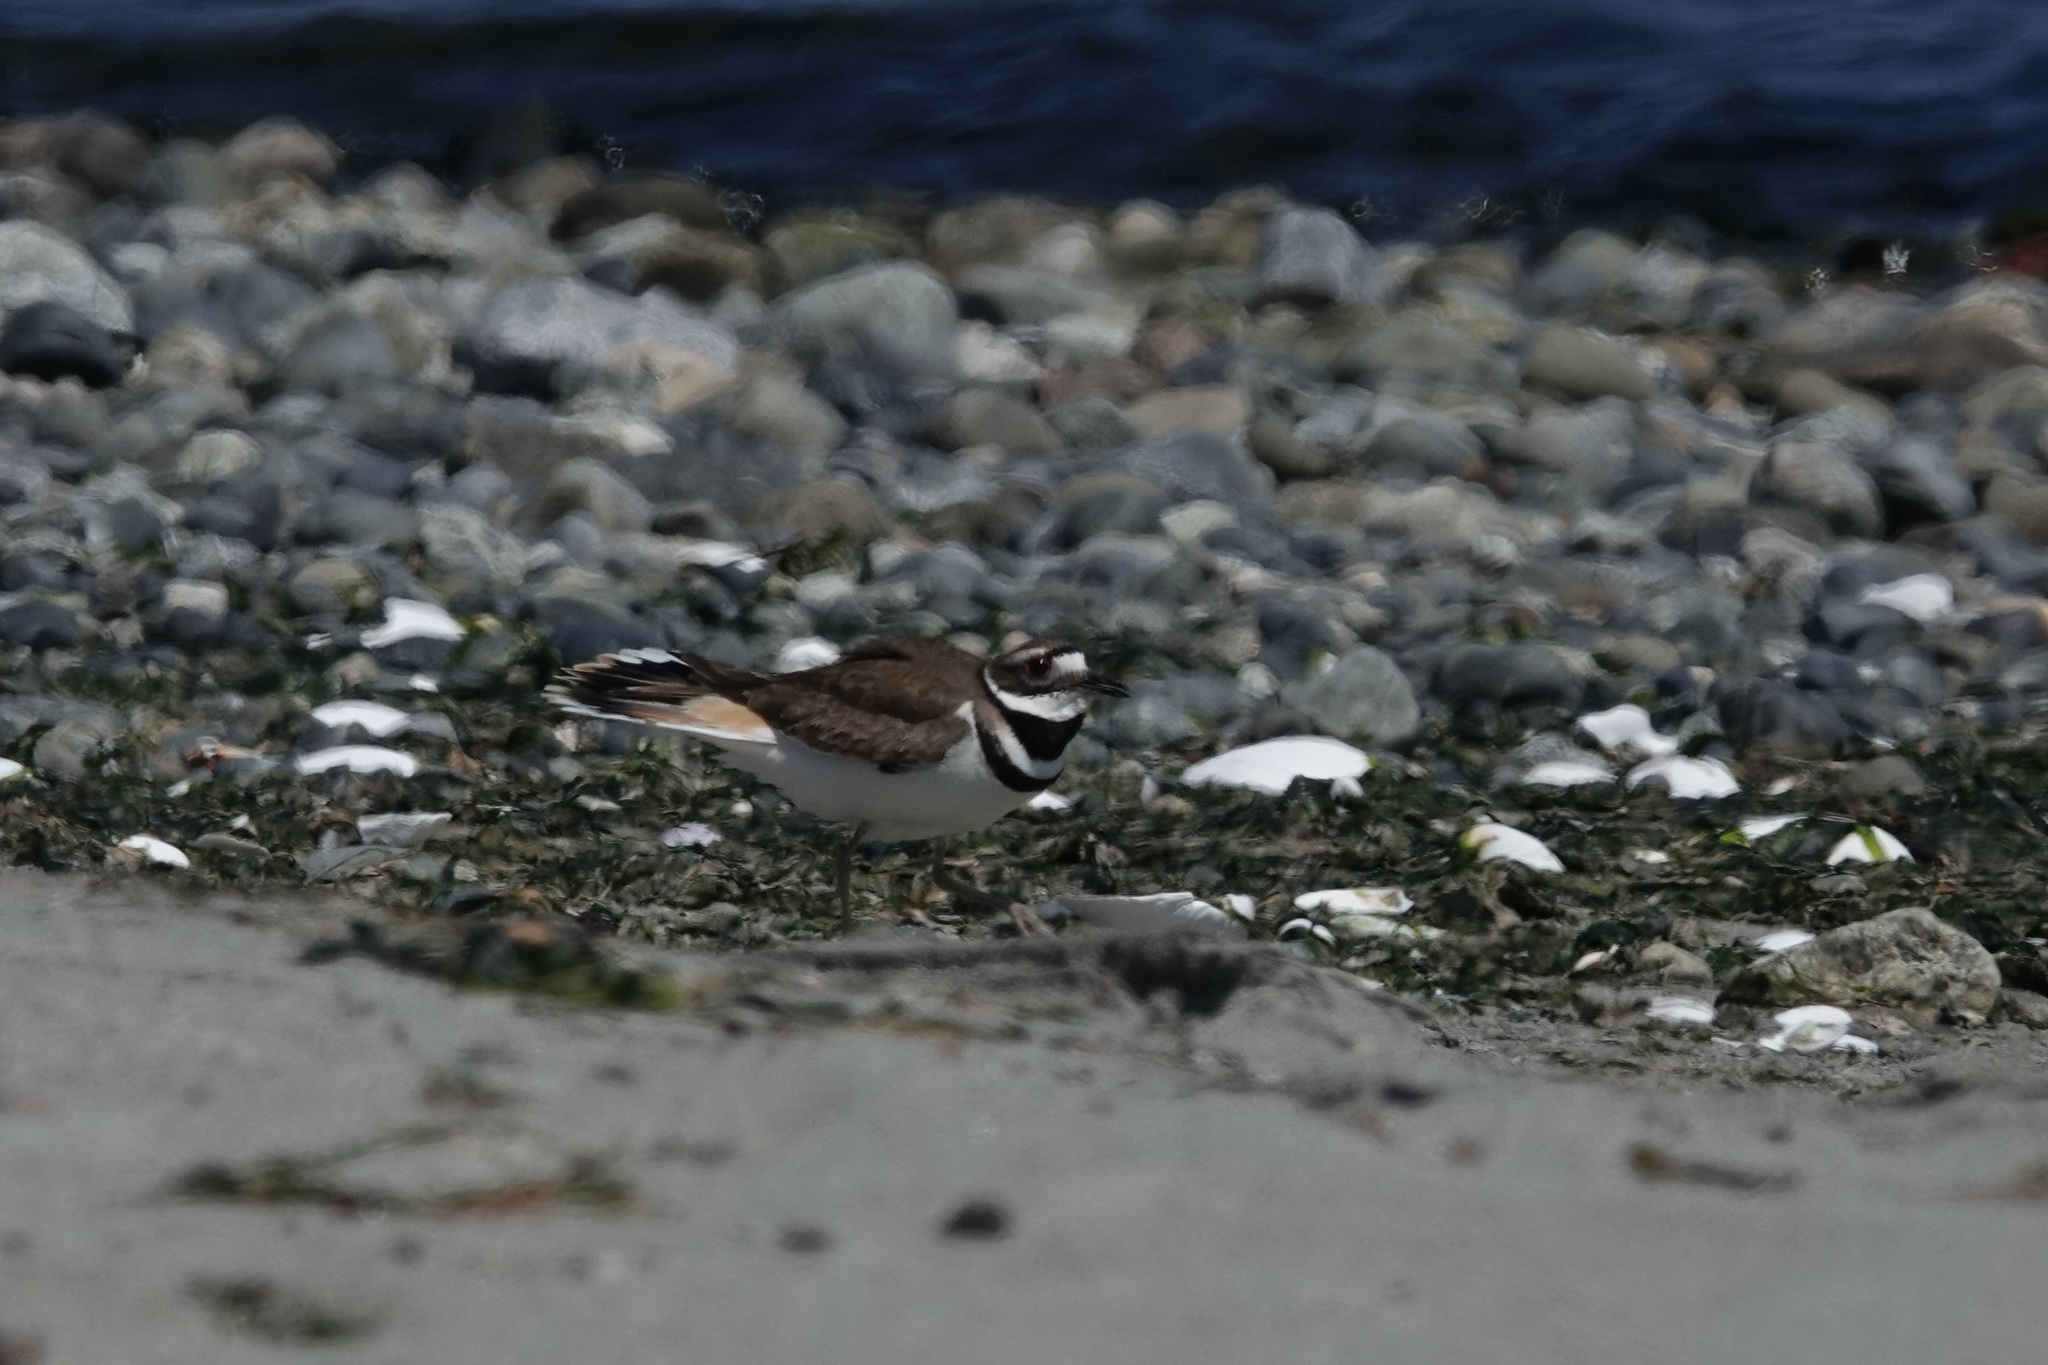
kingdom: Animalia
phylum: Chordata
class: Aves
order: Charadriiformes
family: Charadriidae
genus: Charadrius
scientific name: Charadrius vociferus
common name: Killdeer
